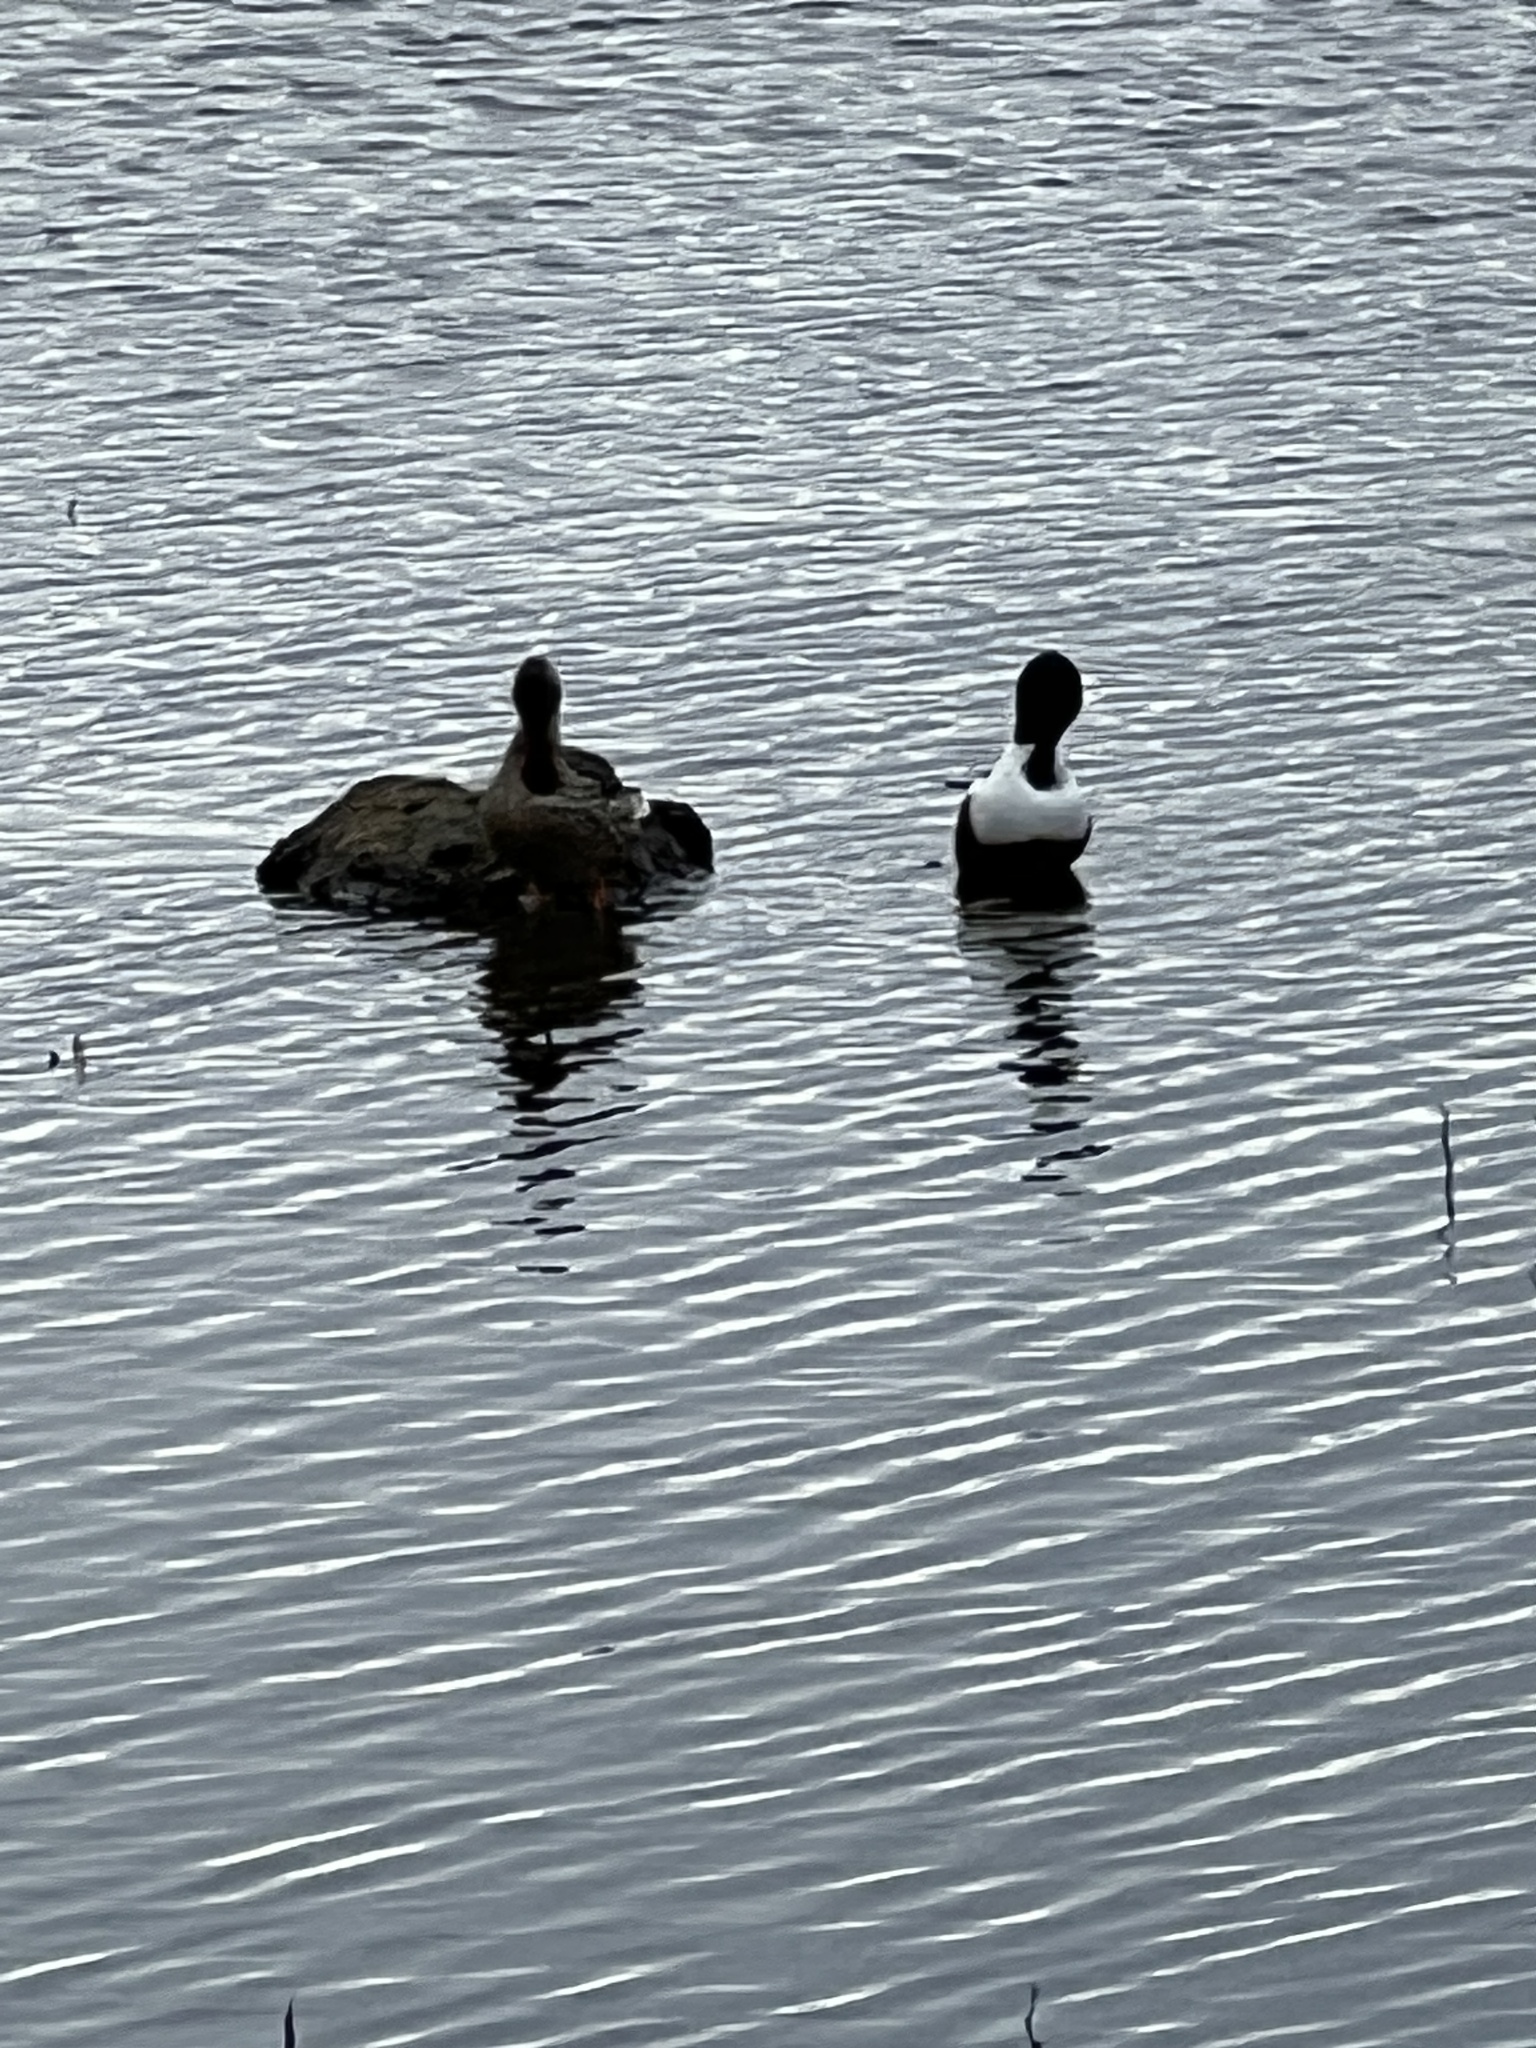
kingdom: Animalia
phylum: Chordata
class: Aves
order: Anseriformes
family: Anatidae
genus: Spatula
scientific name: Spatula clypeata
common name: Northern shoveler
